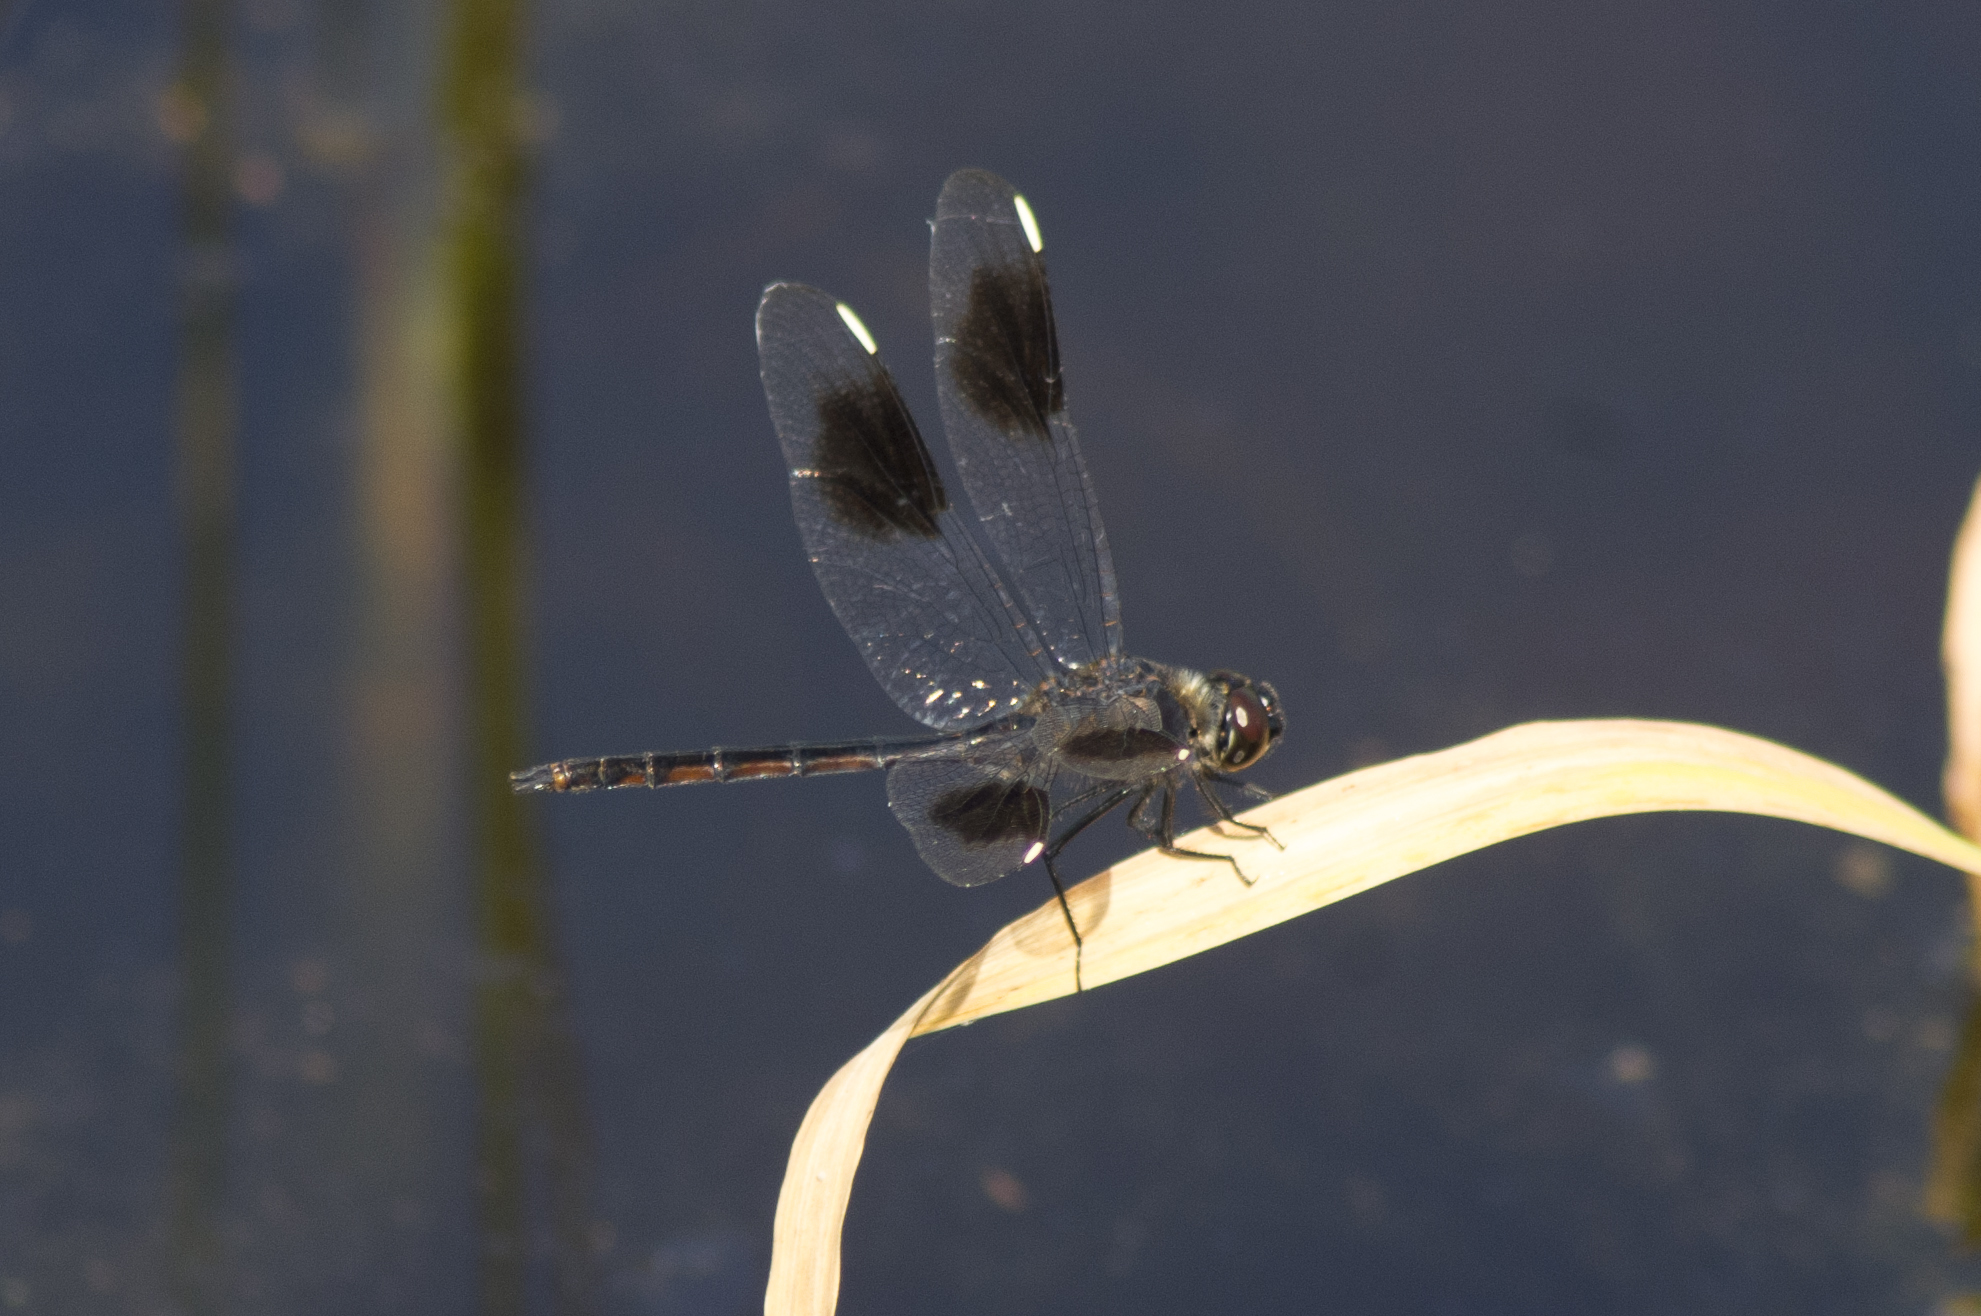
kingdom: Animalia
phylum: Arthropoda
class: Insecta
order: Odonata
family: Libellulidae
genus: Brachymesia
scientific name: Brachymesia gravida
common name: Four-spotted pennant
